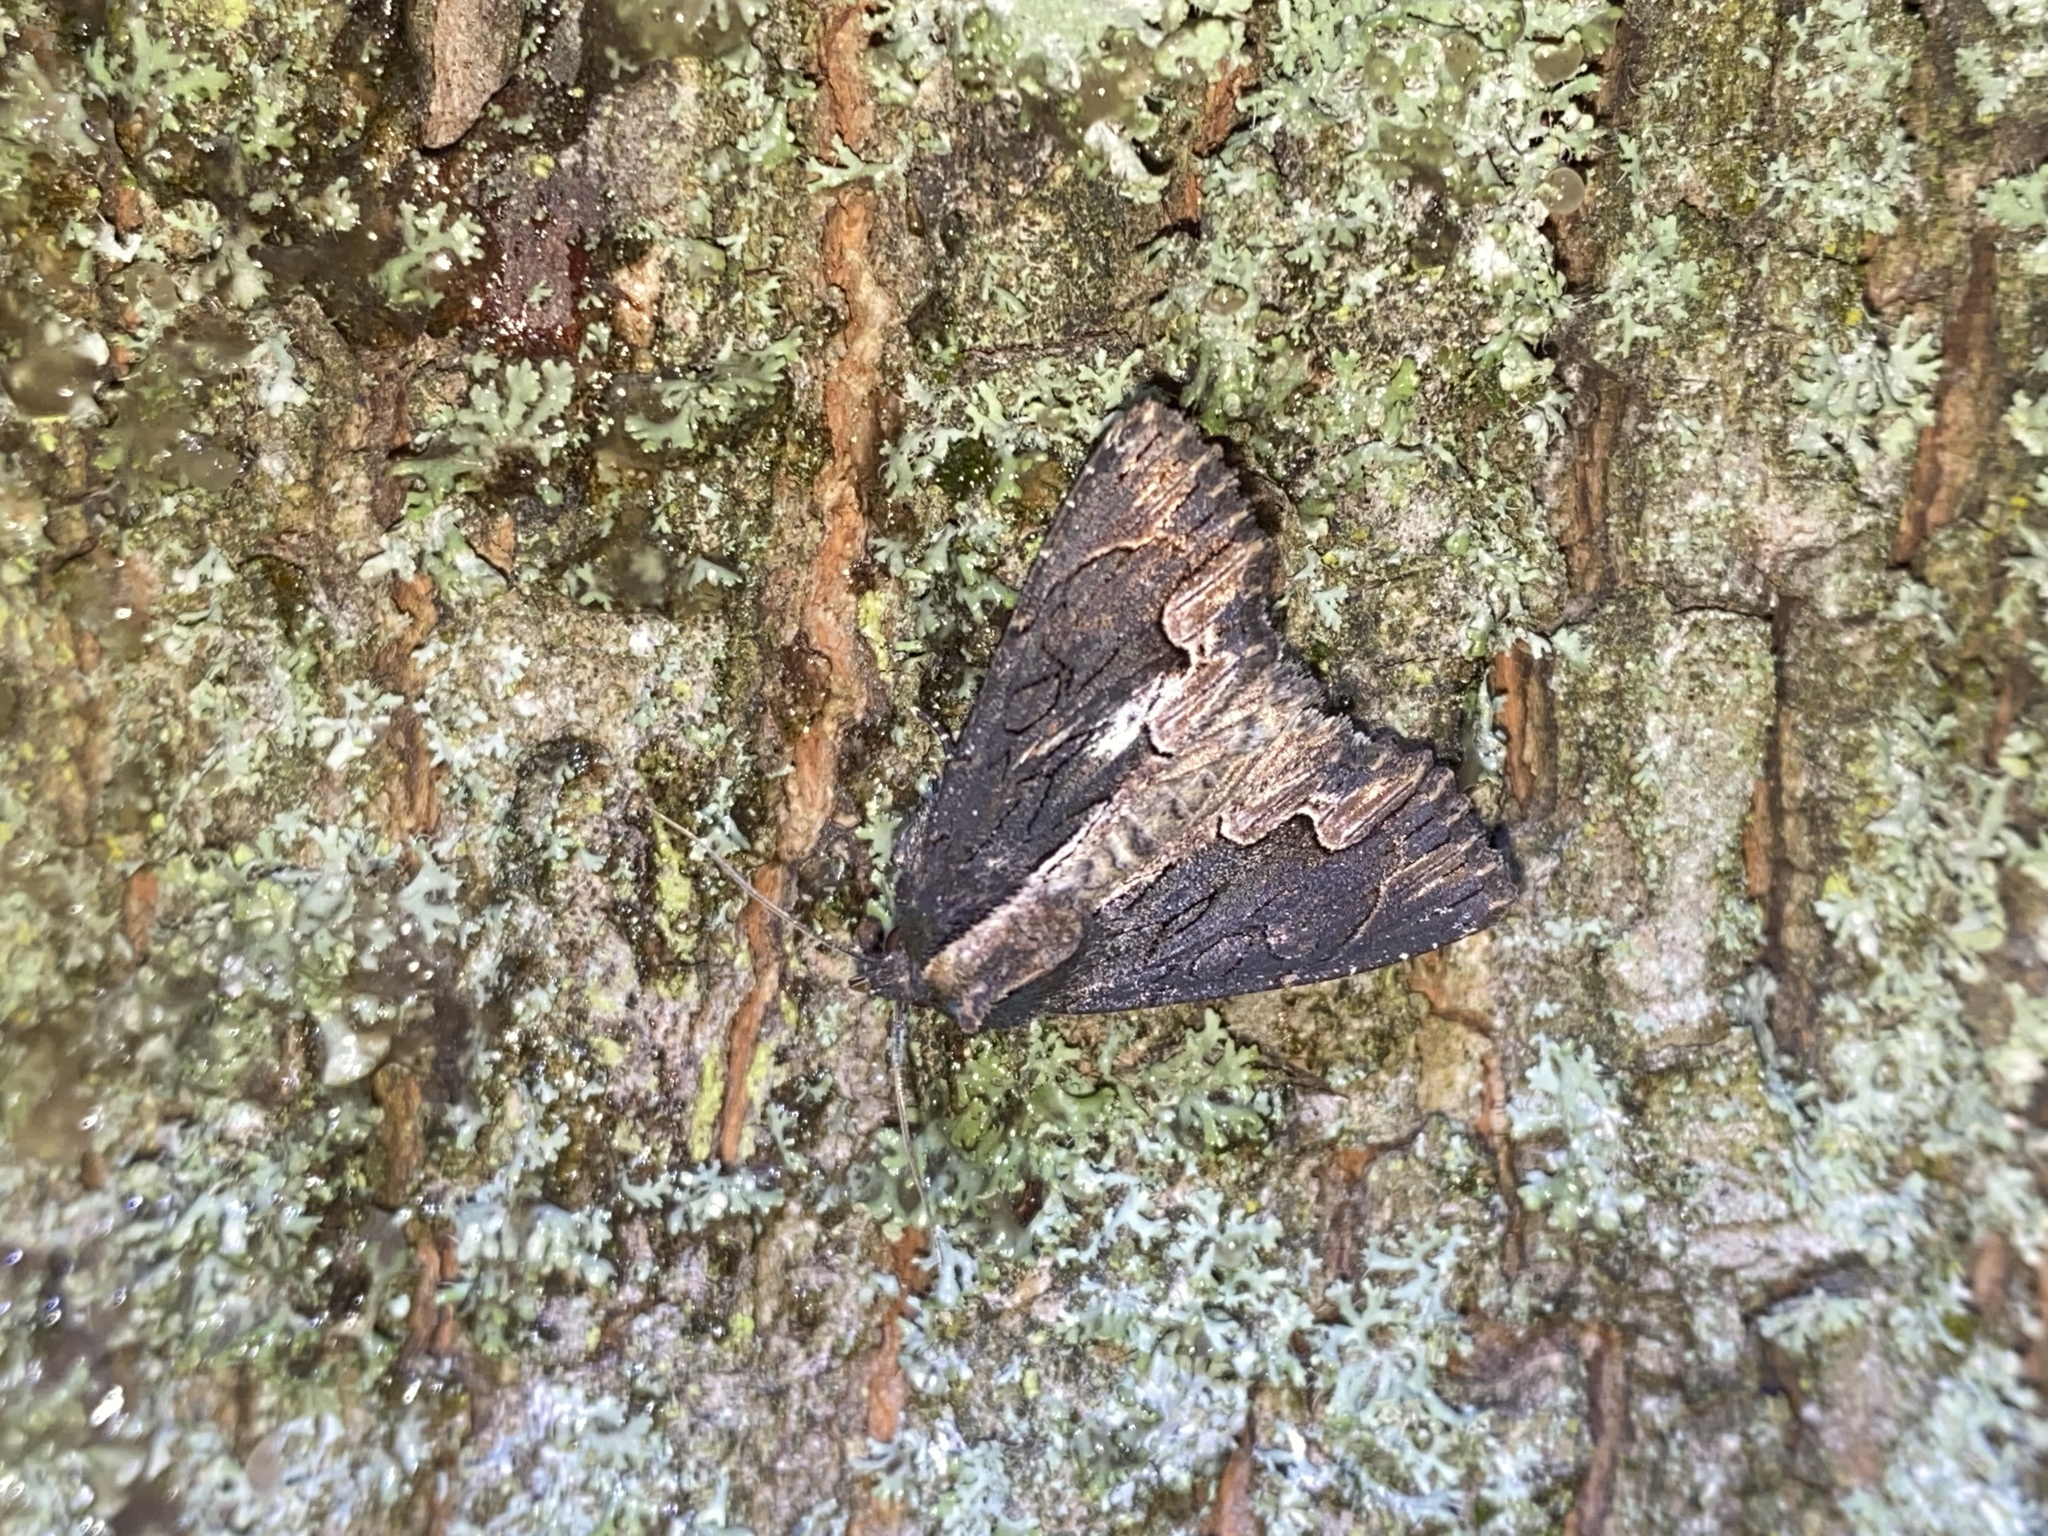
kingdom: Animalia
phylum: Arthropoda
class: Insecta
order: Lepidoptera
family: Noctuidae
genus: Dypterygia
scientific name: Dypterygia scabriuscula
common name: Bird's wing
